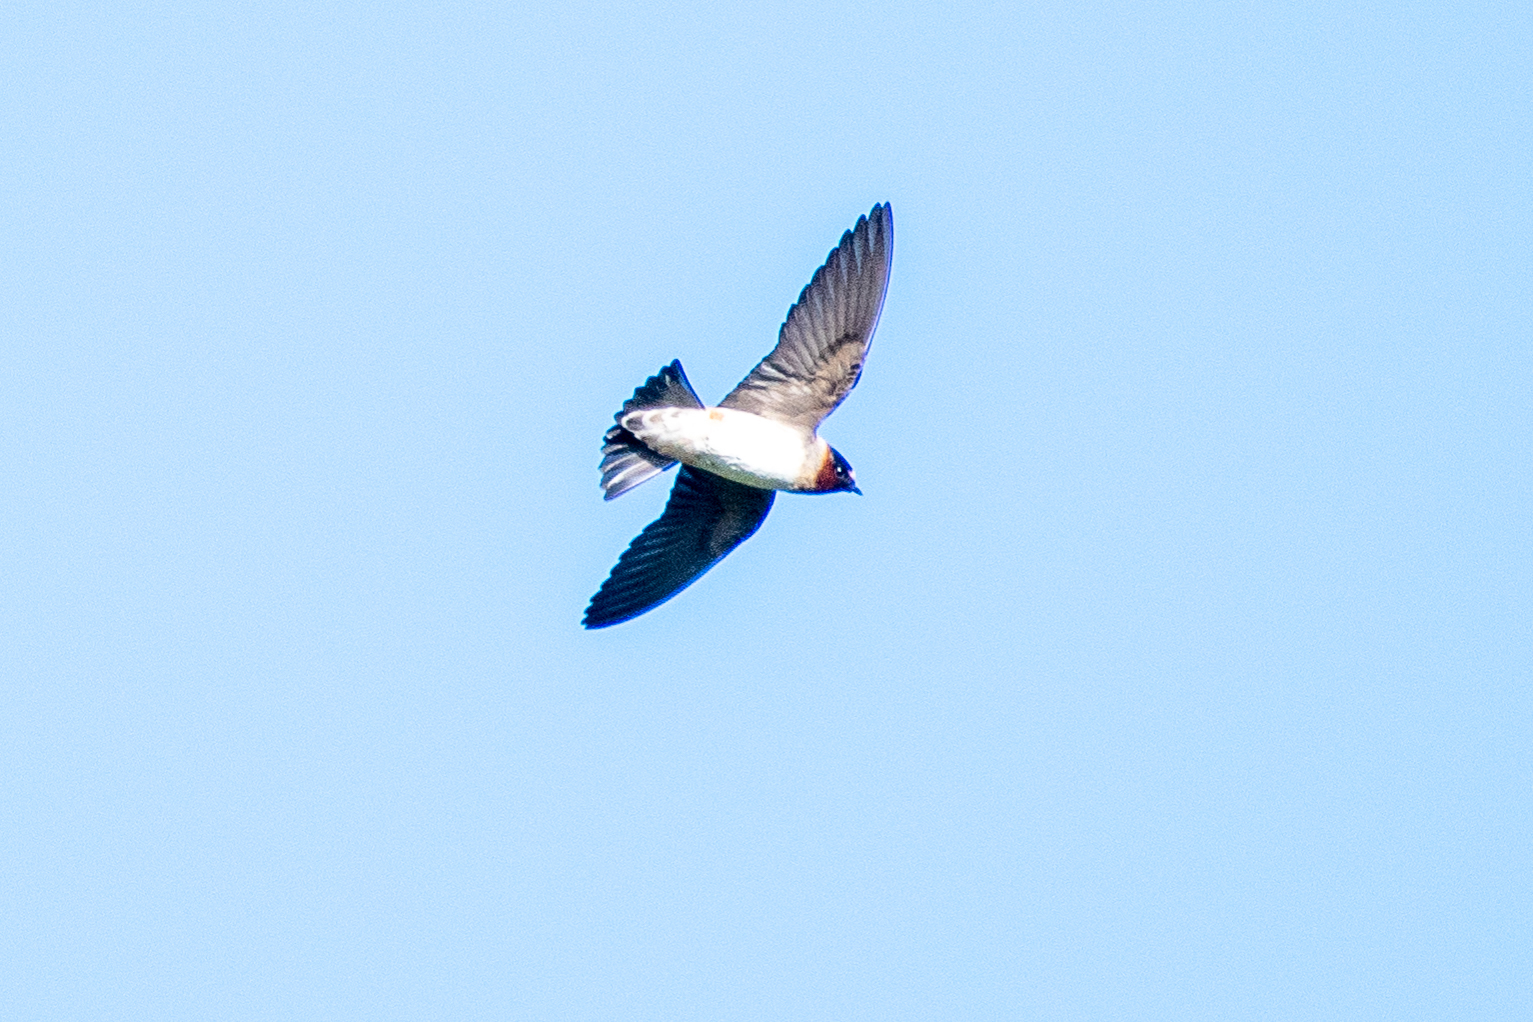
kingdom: Animalia
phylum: Chordata
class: Aves
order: Passeriformes
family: Hirundinidae
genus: Petrochelidon
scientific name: Petrochelidon pyrrhonota
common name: American cliff swallow
